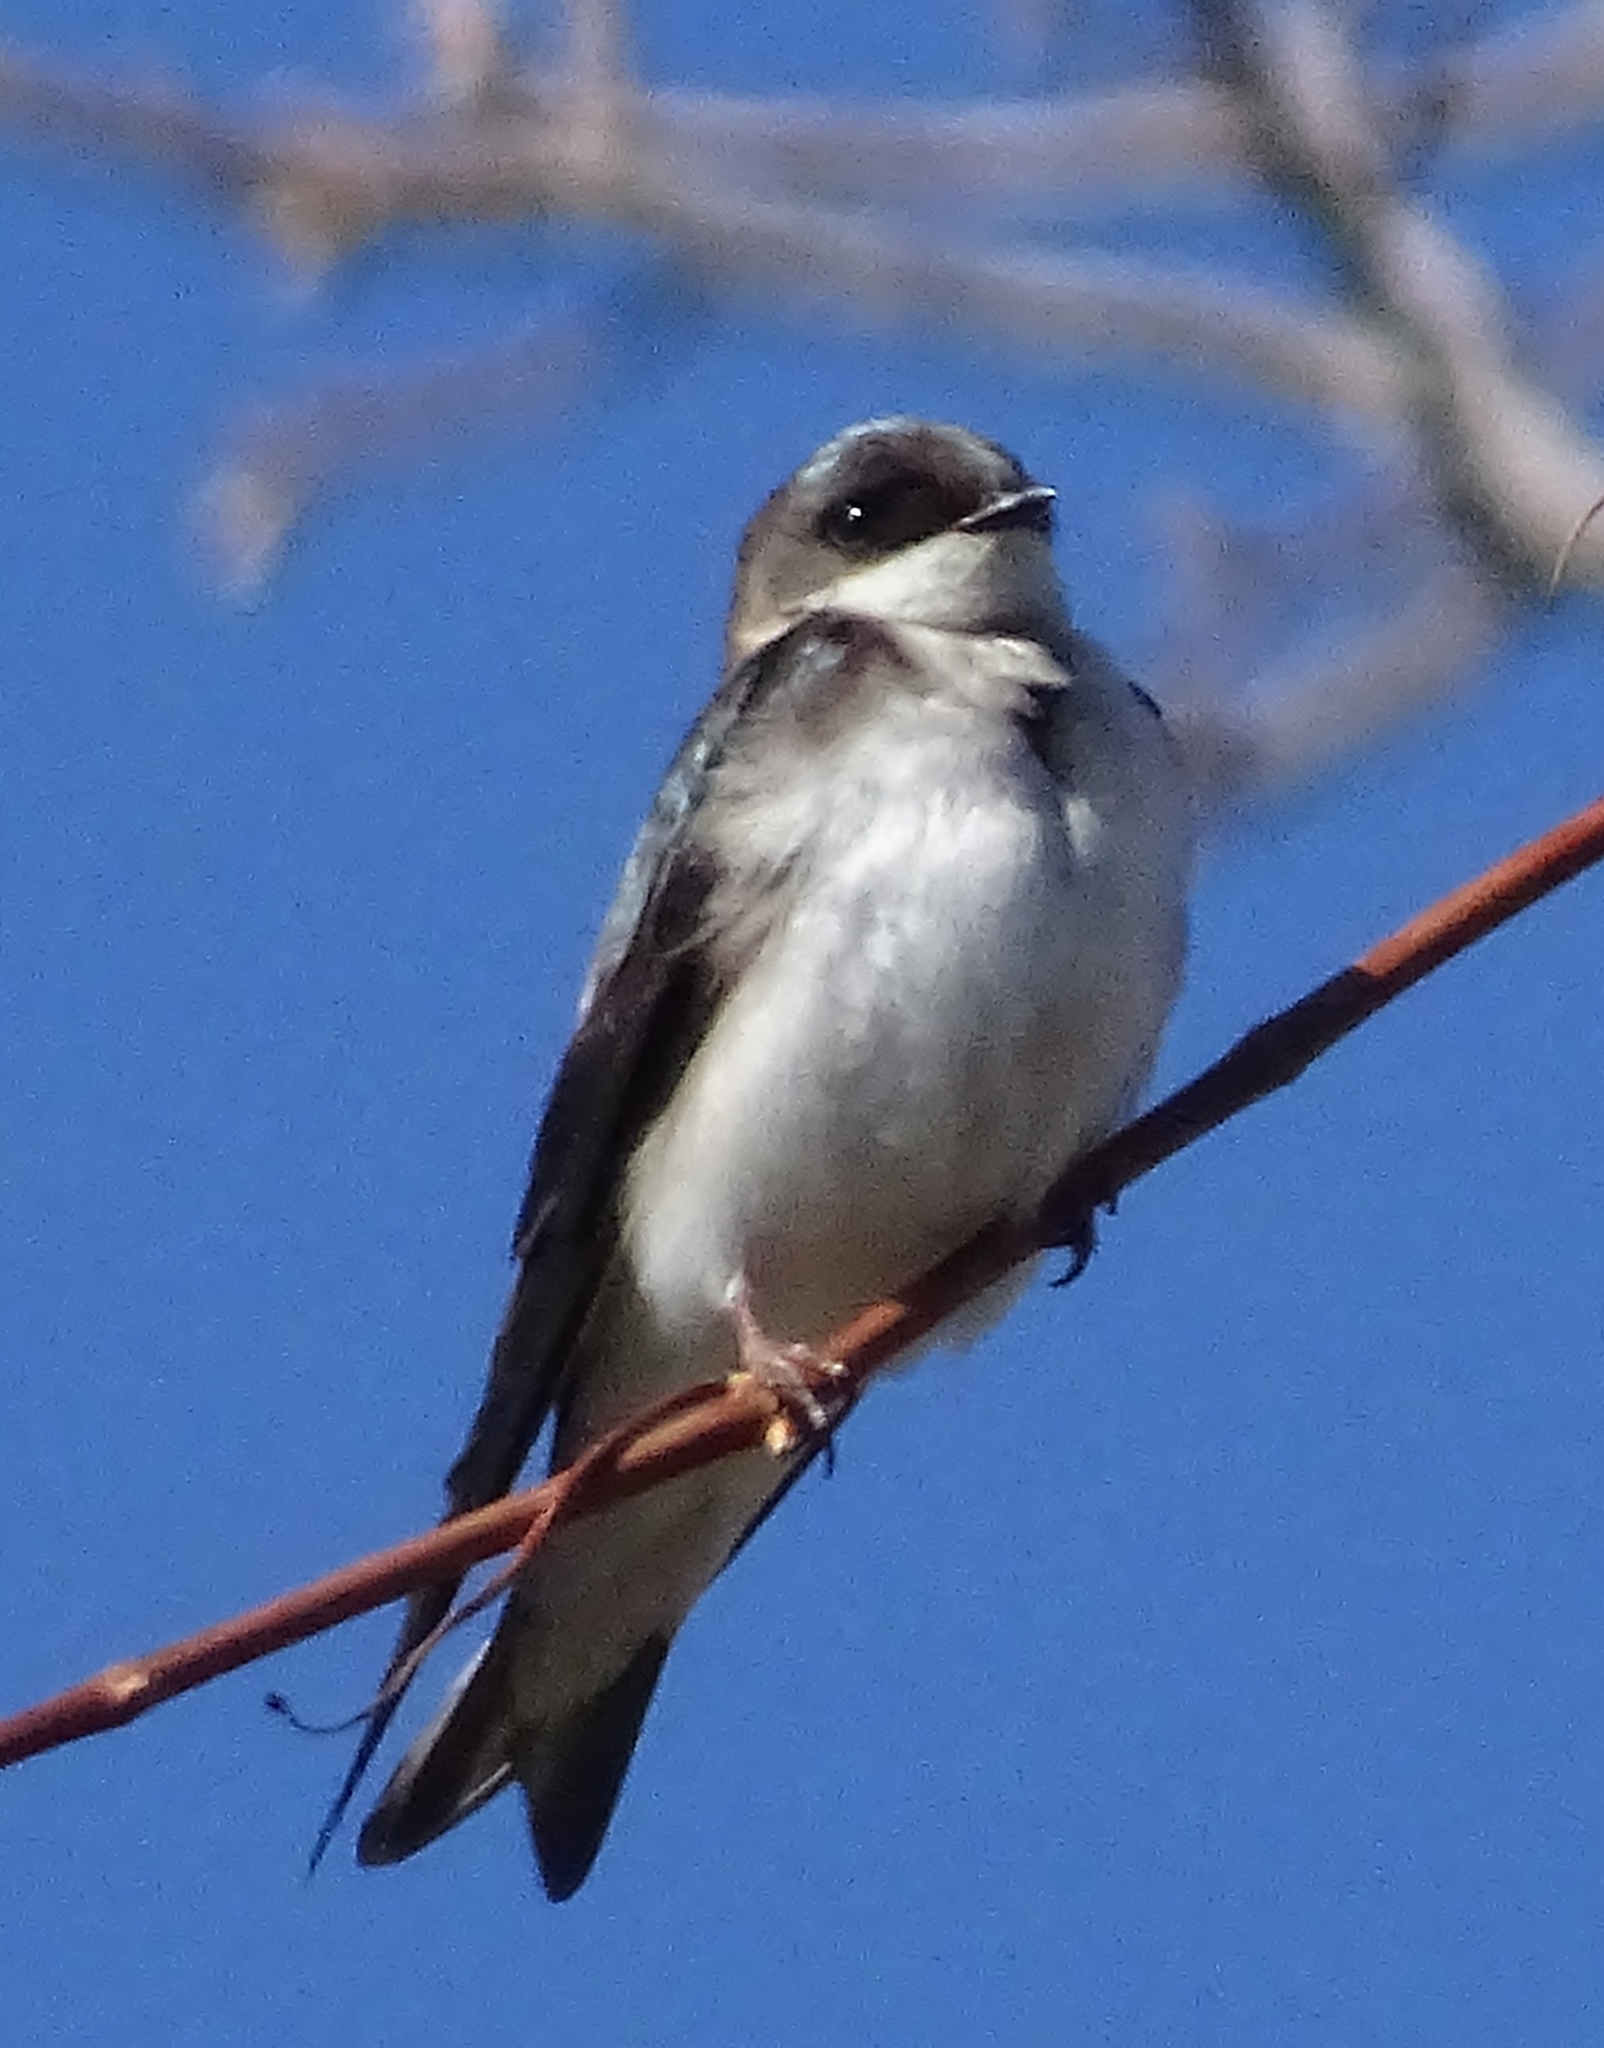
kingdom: Animalia
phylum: Chordata
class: Aves
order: Passeriformes
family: Hirundinidae
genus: Tachycineta
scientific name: Tachycineta bicolor
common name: Tree swallow
